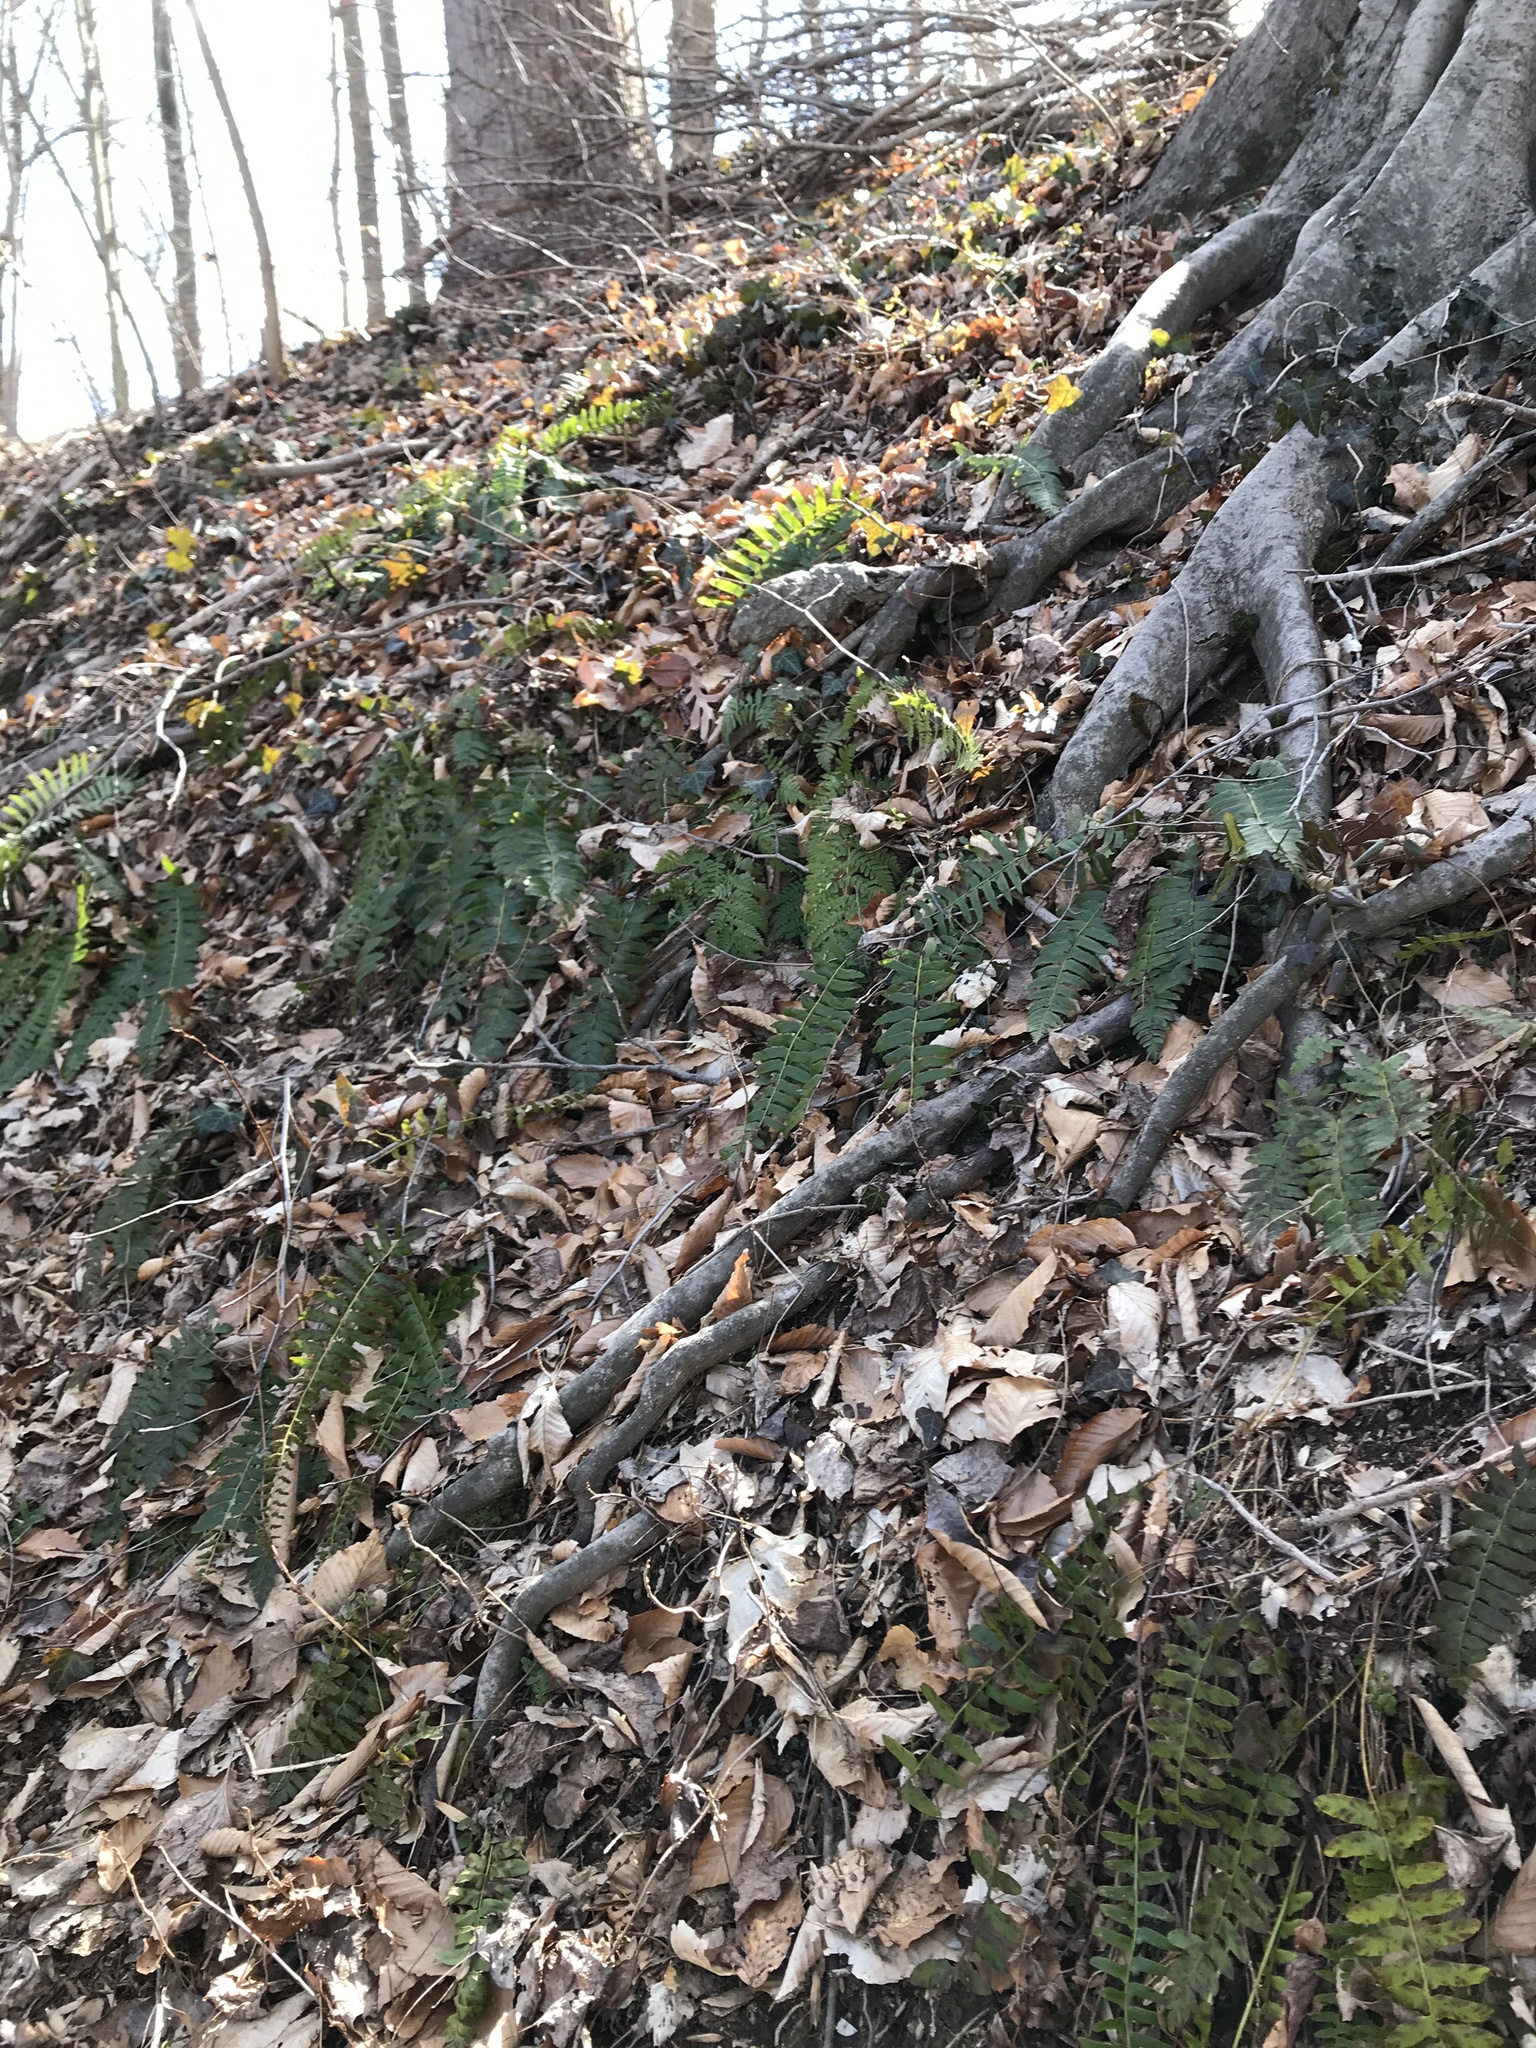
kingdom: Plantae
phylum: Tracheophyta
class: Polypodiopsida
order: Polypodiales
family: Dryopteridaceae
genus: Polystichum
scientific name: Polystichum acrostichoides
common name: Christmas fern
